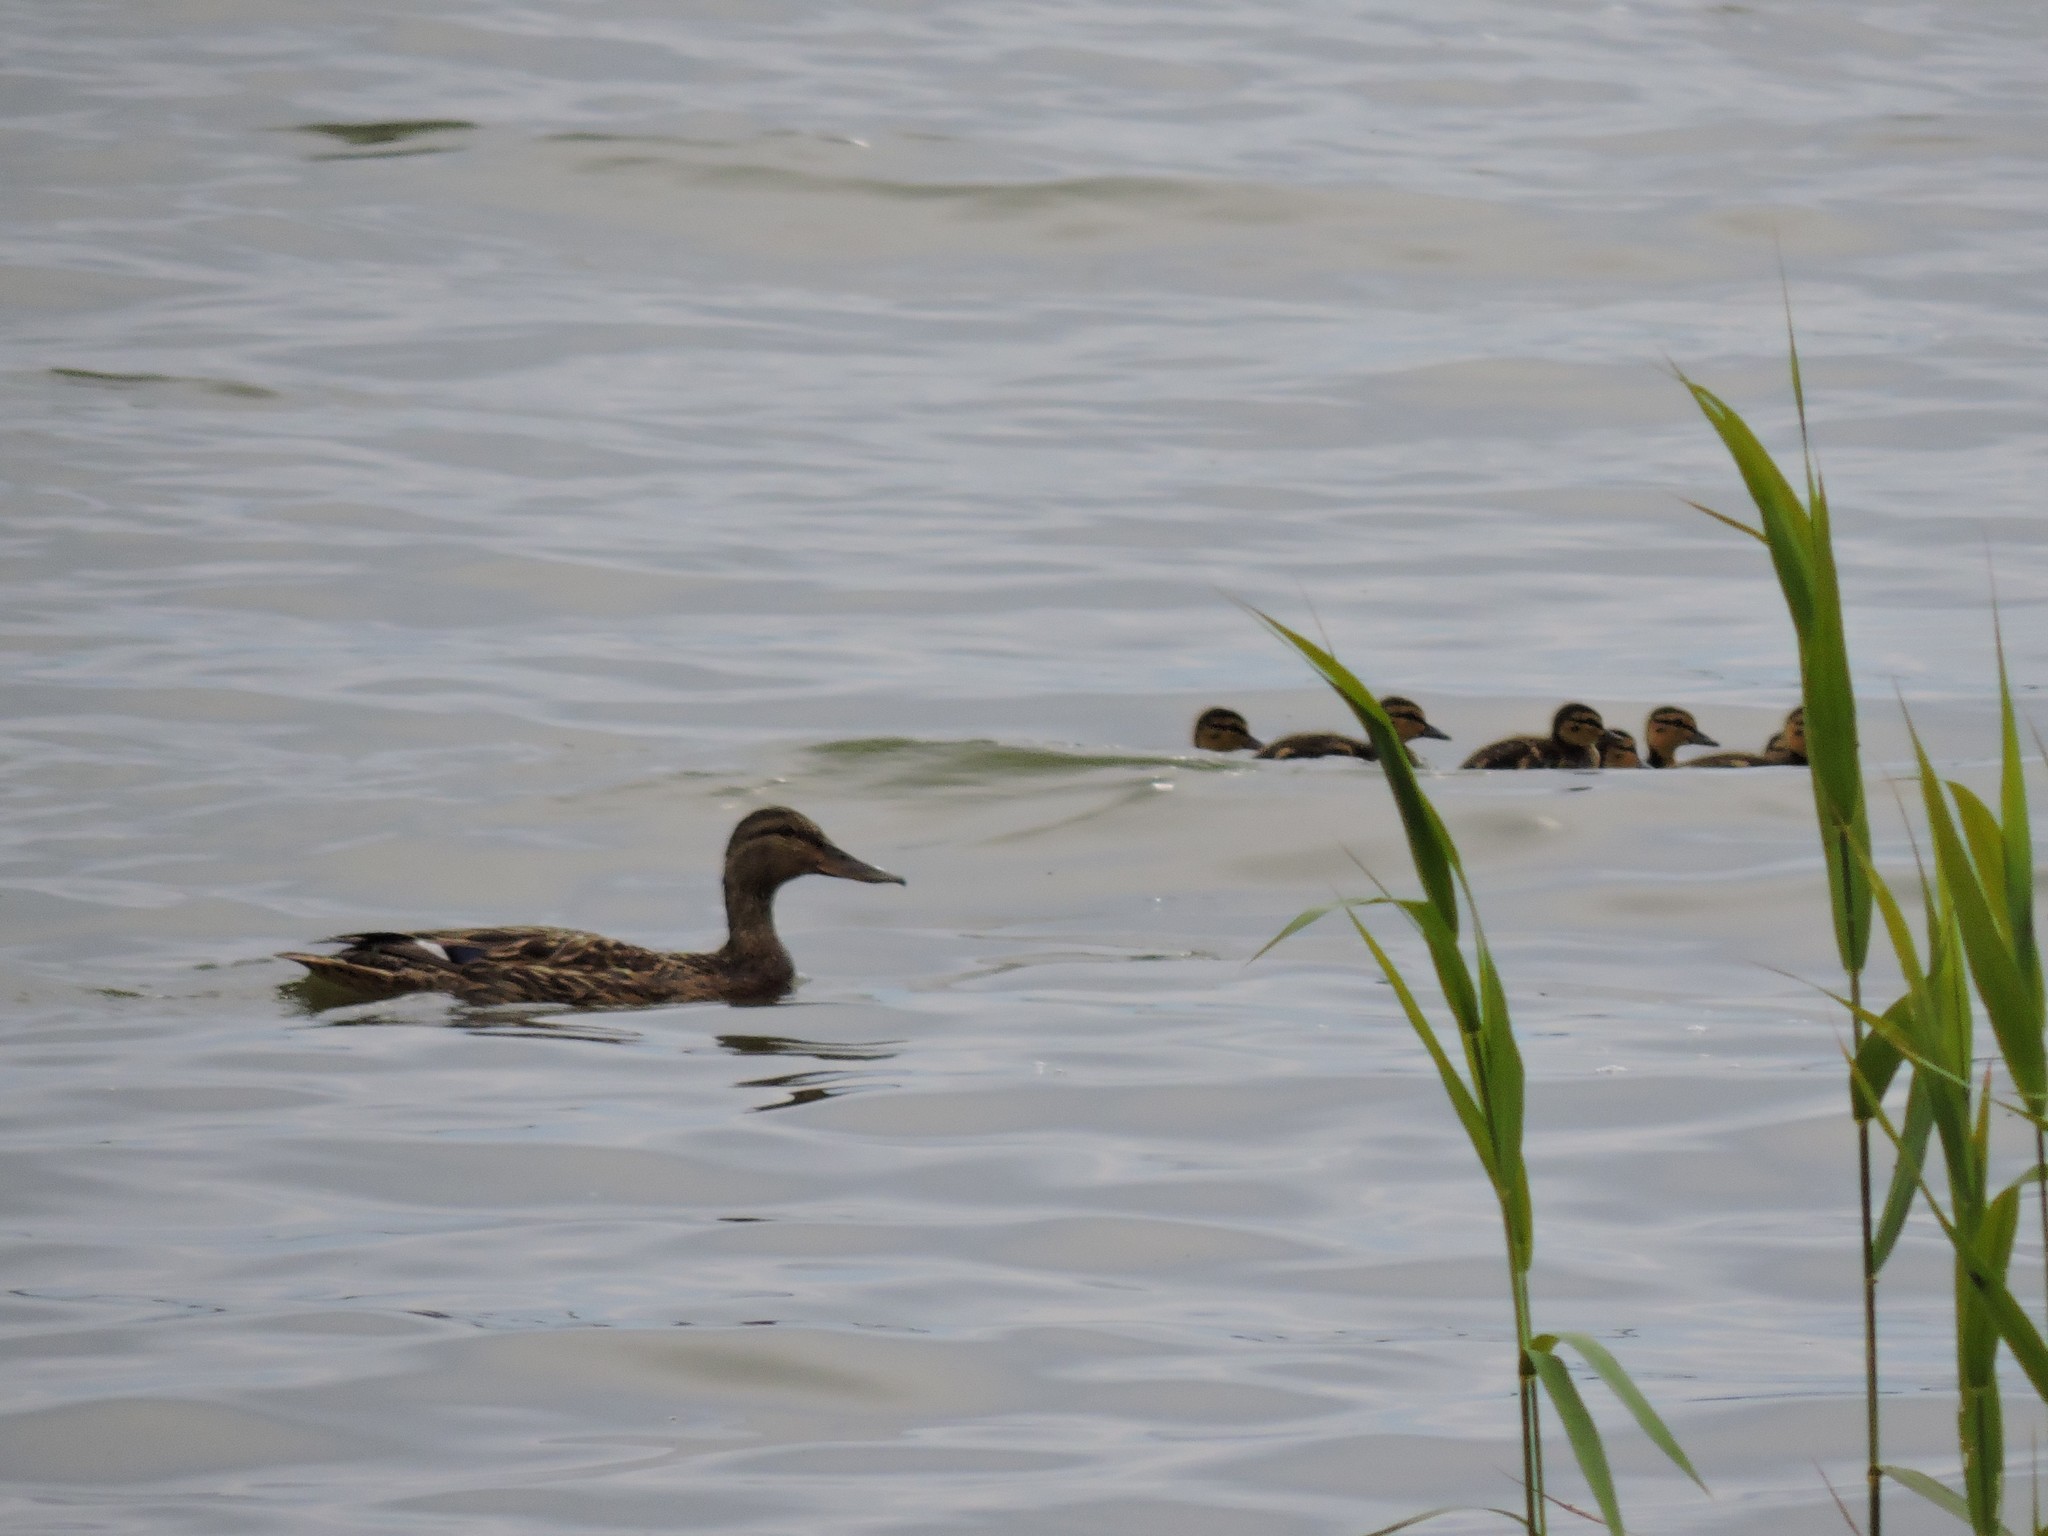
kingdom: Animalia
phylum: Chordata
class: Aves
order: Anseriformes
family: Anatidae
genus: Anas
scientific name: Anas platyrhynchos
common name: Mallard
